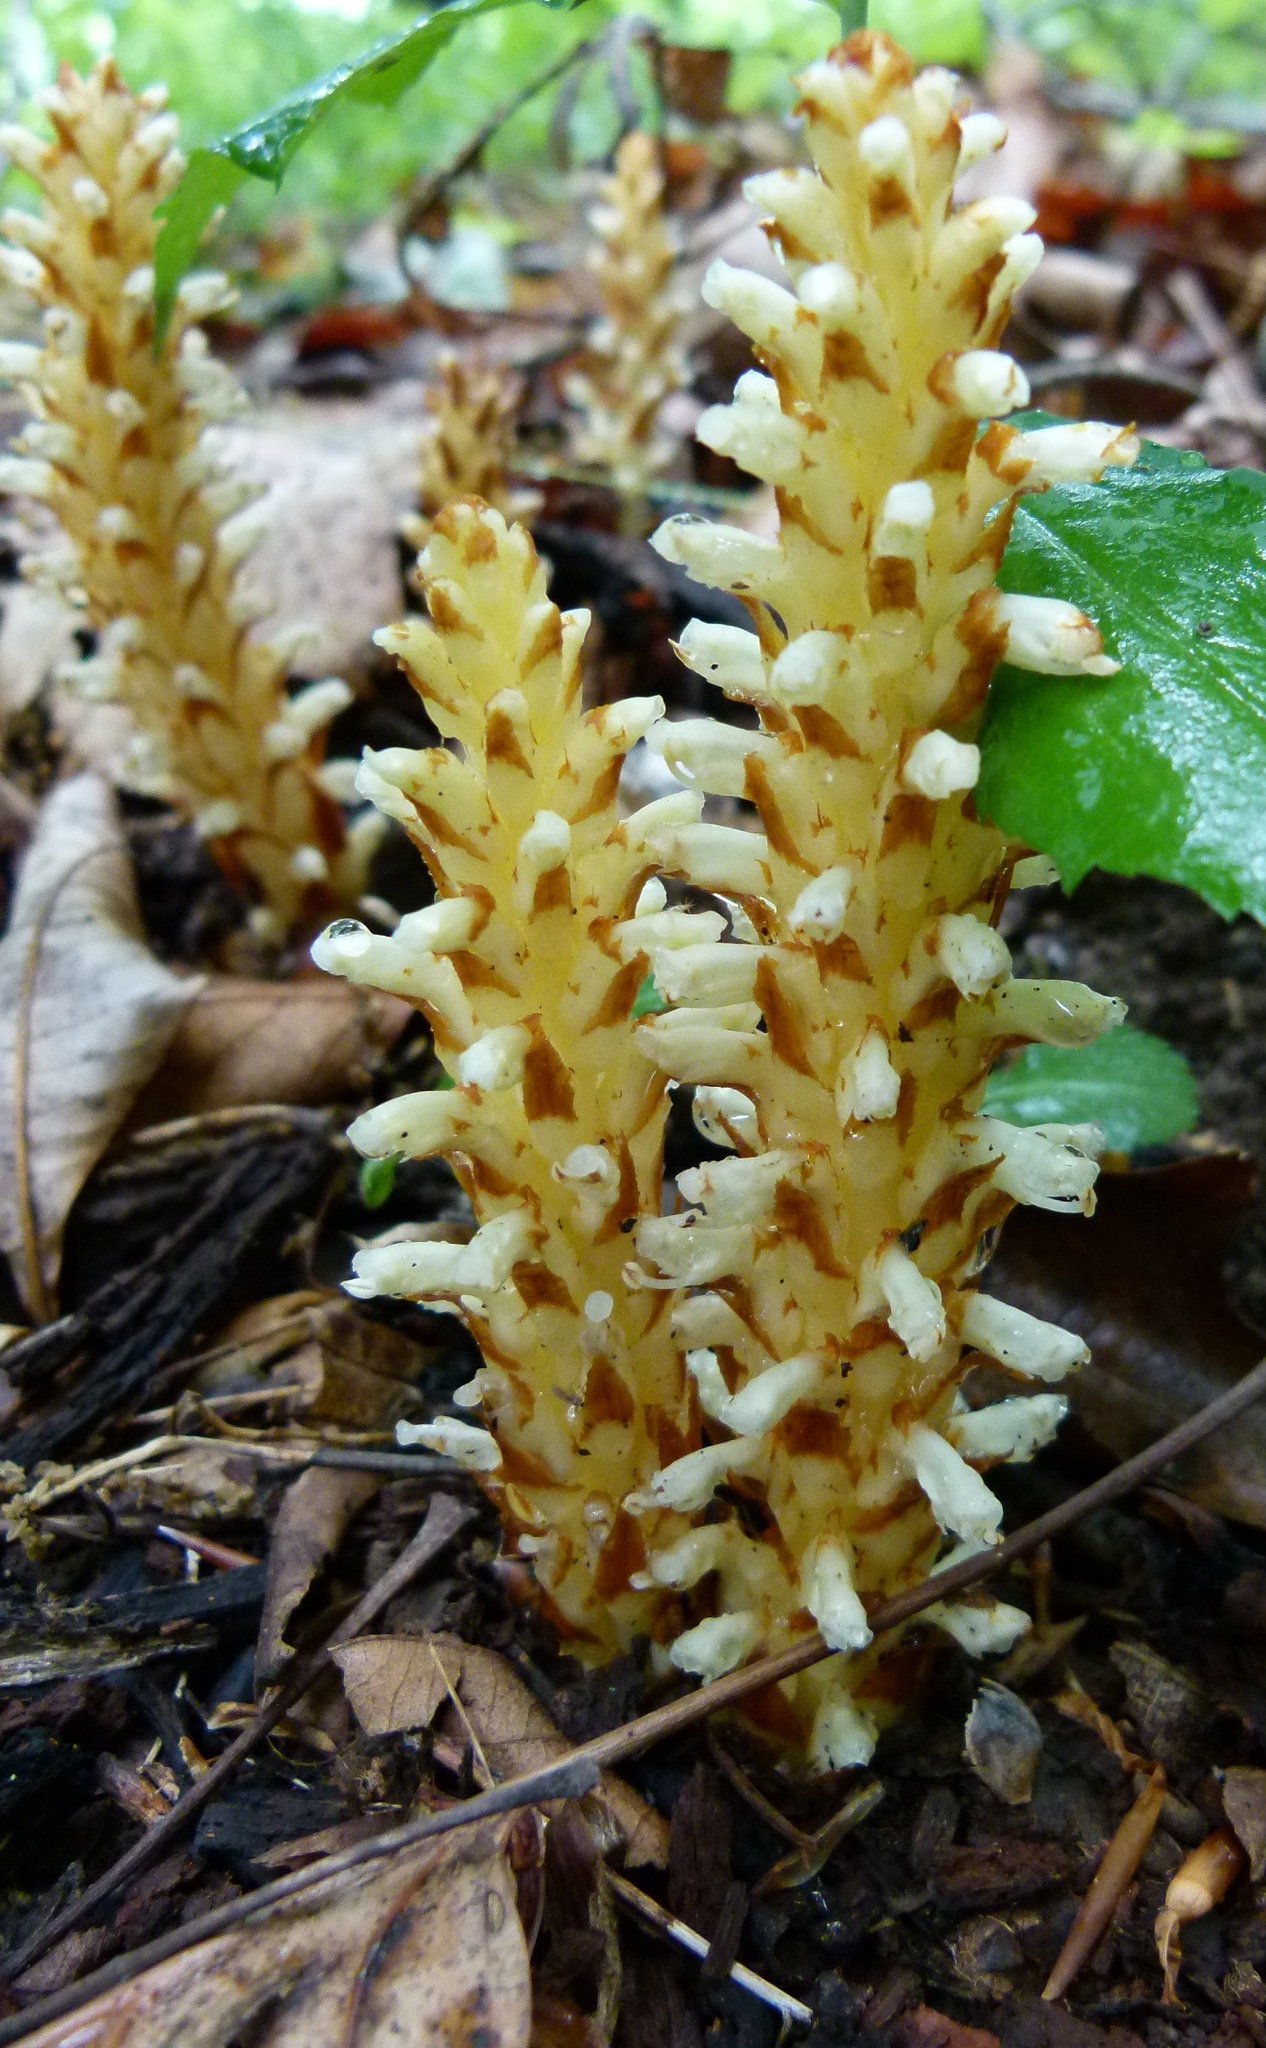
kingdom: Plantae
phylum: Tracheophyta
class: Magnoliopsida
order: Lamiales
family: Orobanchaceae
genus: Conopholis
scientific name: Conopholis americana
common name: American cancer-root
